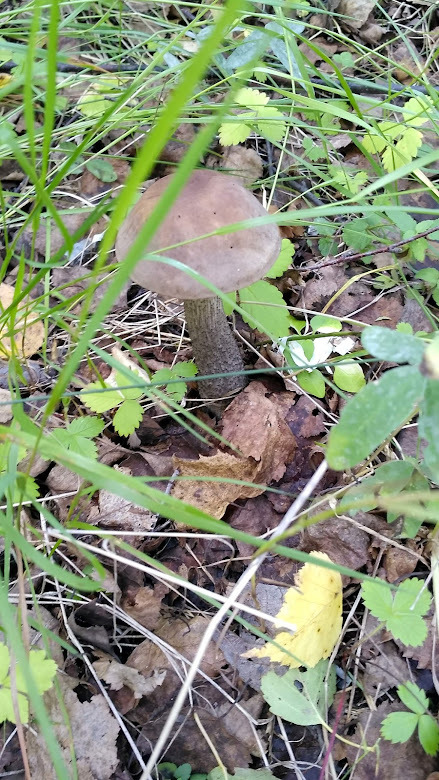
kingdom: Fungi
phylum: Basidiomycota
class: Agaricomycetes
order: Boletales
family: Boletaceae
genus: Leccinum
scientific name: Leccinum scabrum
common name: Blushing bolete
